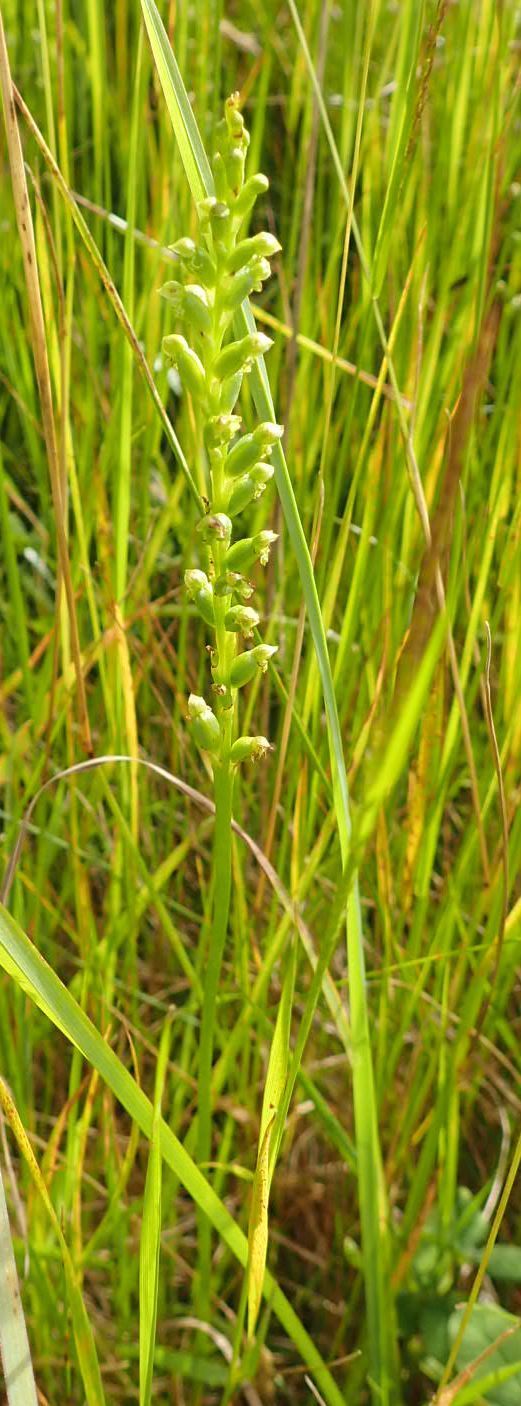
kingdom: Plantae
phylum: Tracheophyta
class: Liliopsida
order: Asparagales
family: Orchidaceae
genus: Microtis
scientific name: Microtis unifolia
